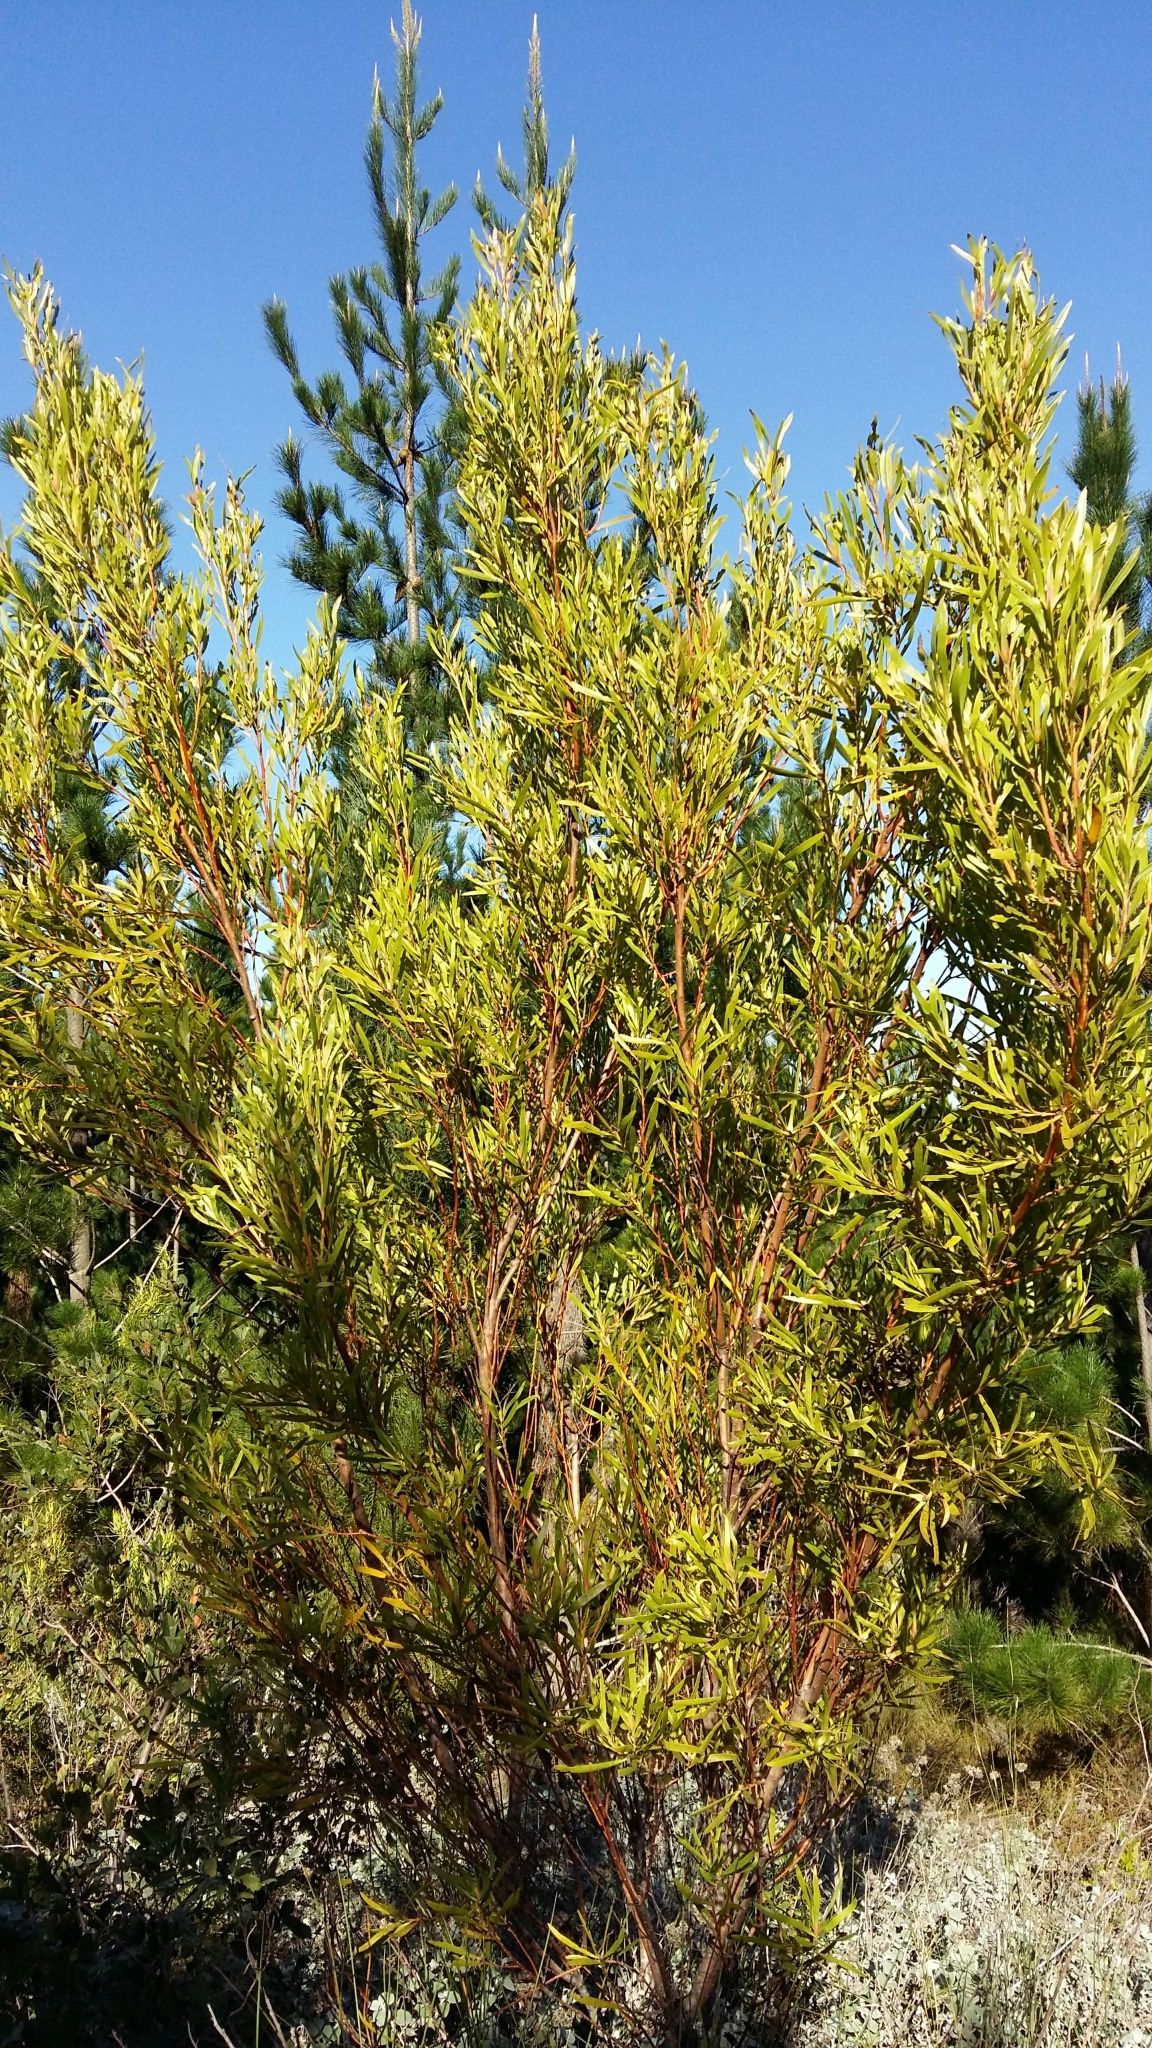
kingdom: Plantae
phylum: Tracheophyta
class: Magnoliopsida
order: Proteales
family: Proteaceae
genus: Leucadendron
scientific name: Leucadendron eucalyptifolium
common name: Gum-leaved conebush
